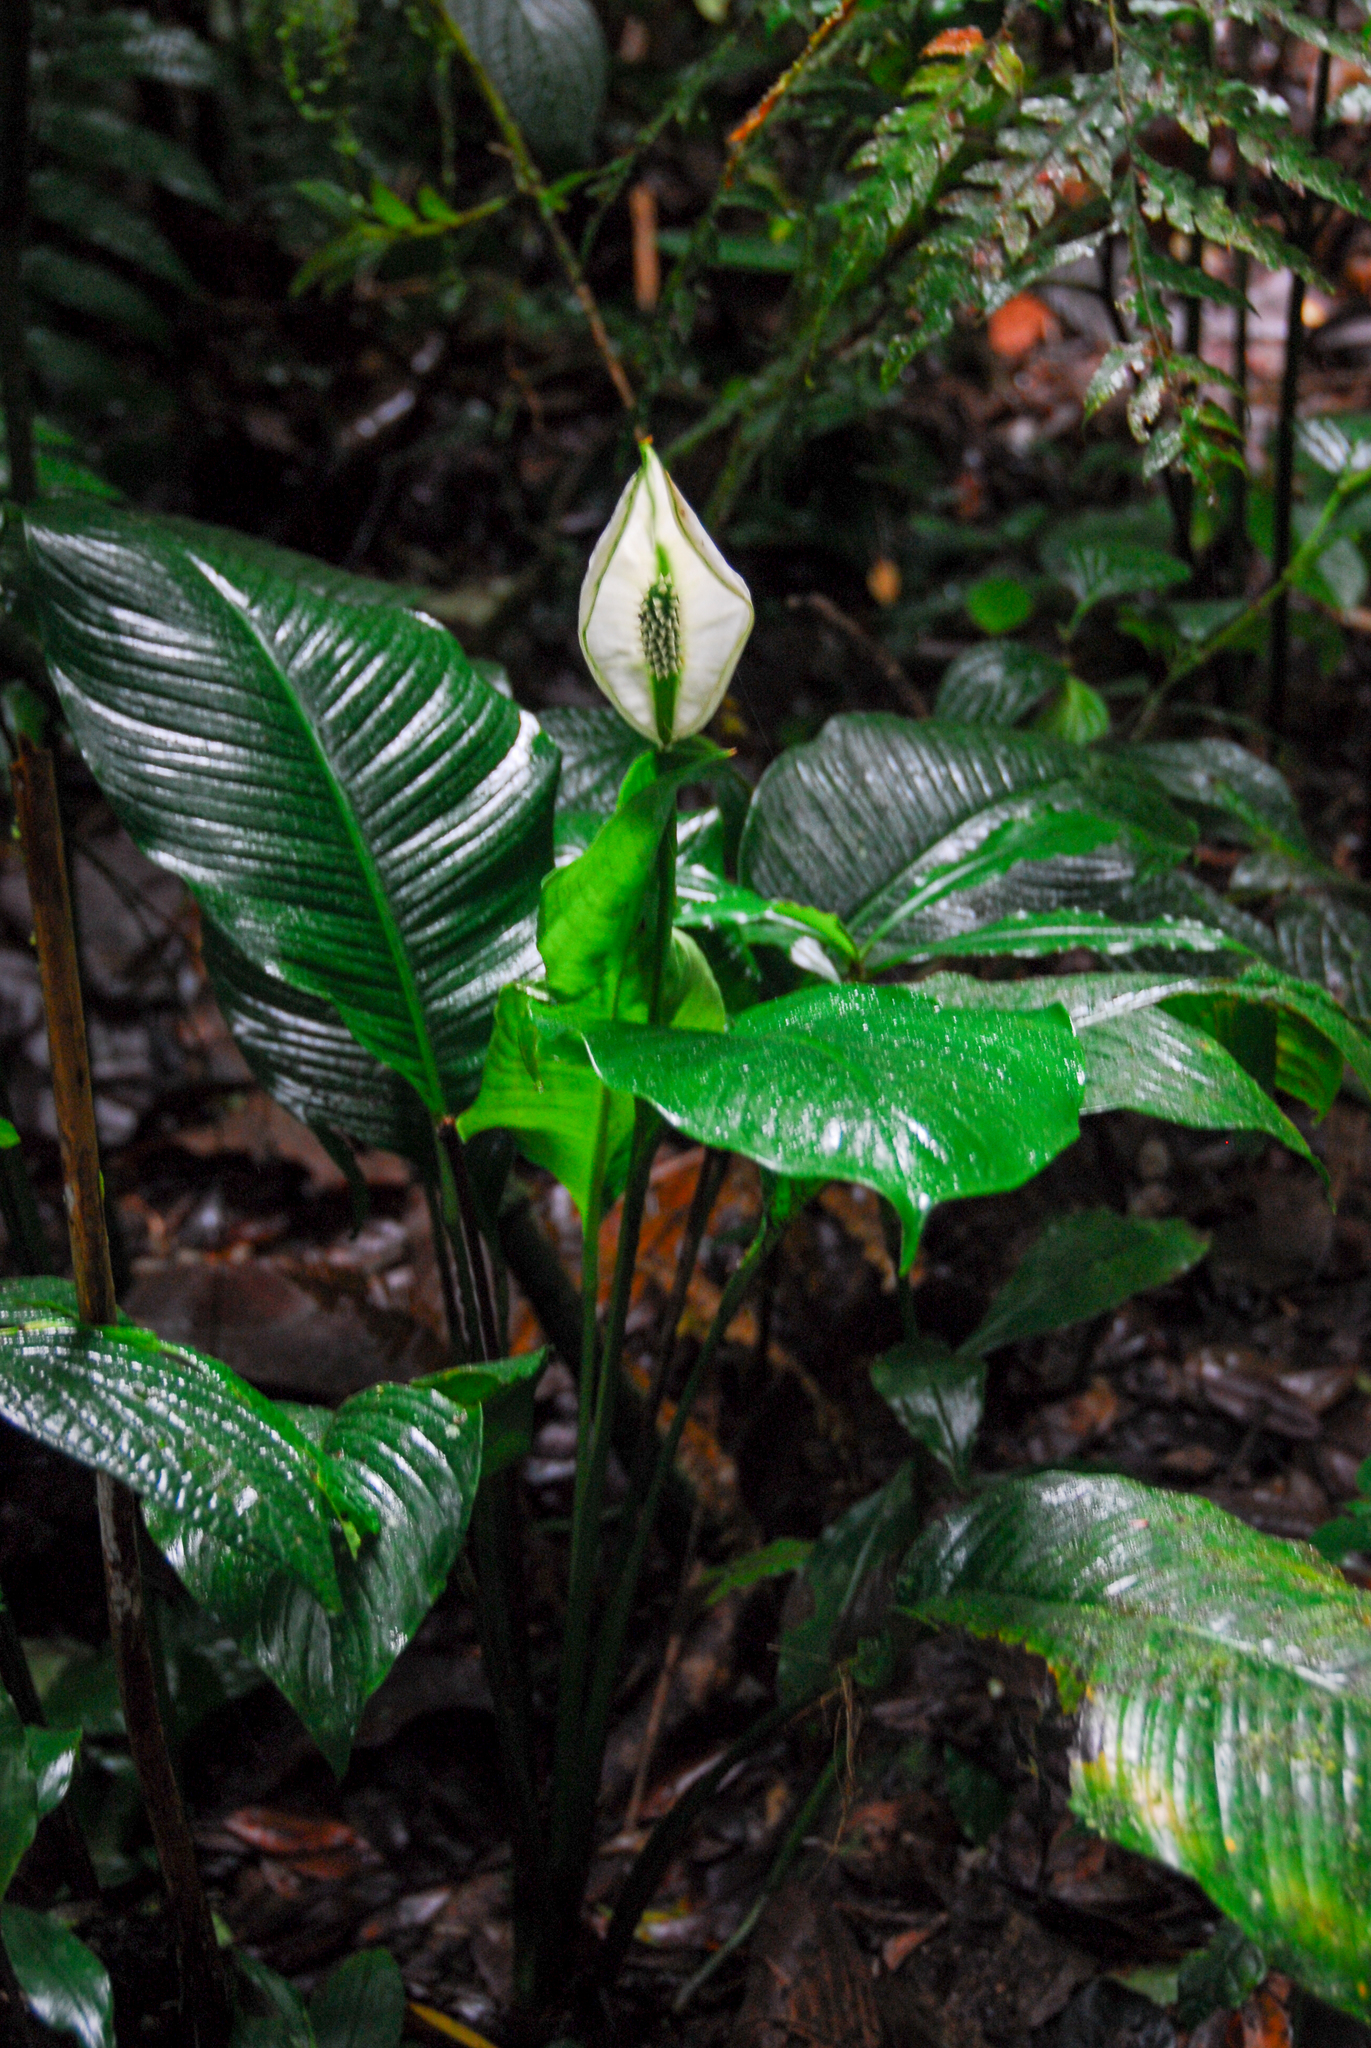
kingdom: Plantae
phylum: Tracheophyta
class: Liliopsida
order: Alismatales
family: Araceae
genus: Spathiphyllum
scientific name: Spathiphyllum wallisii
